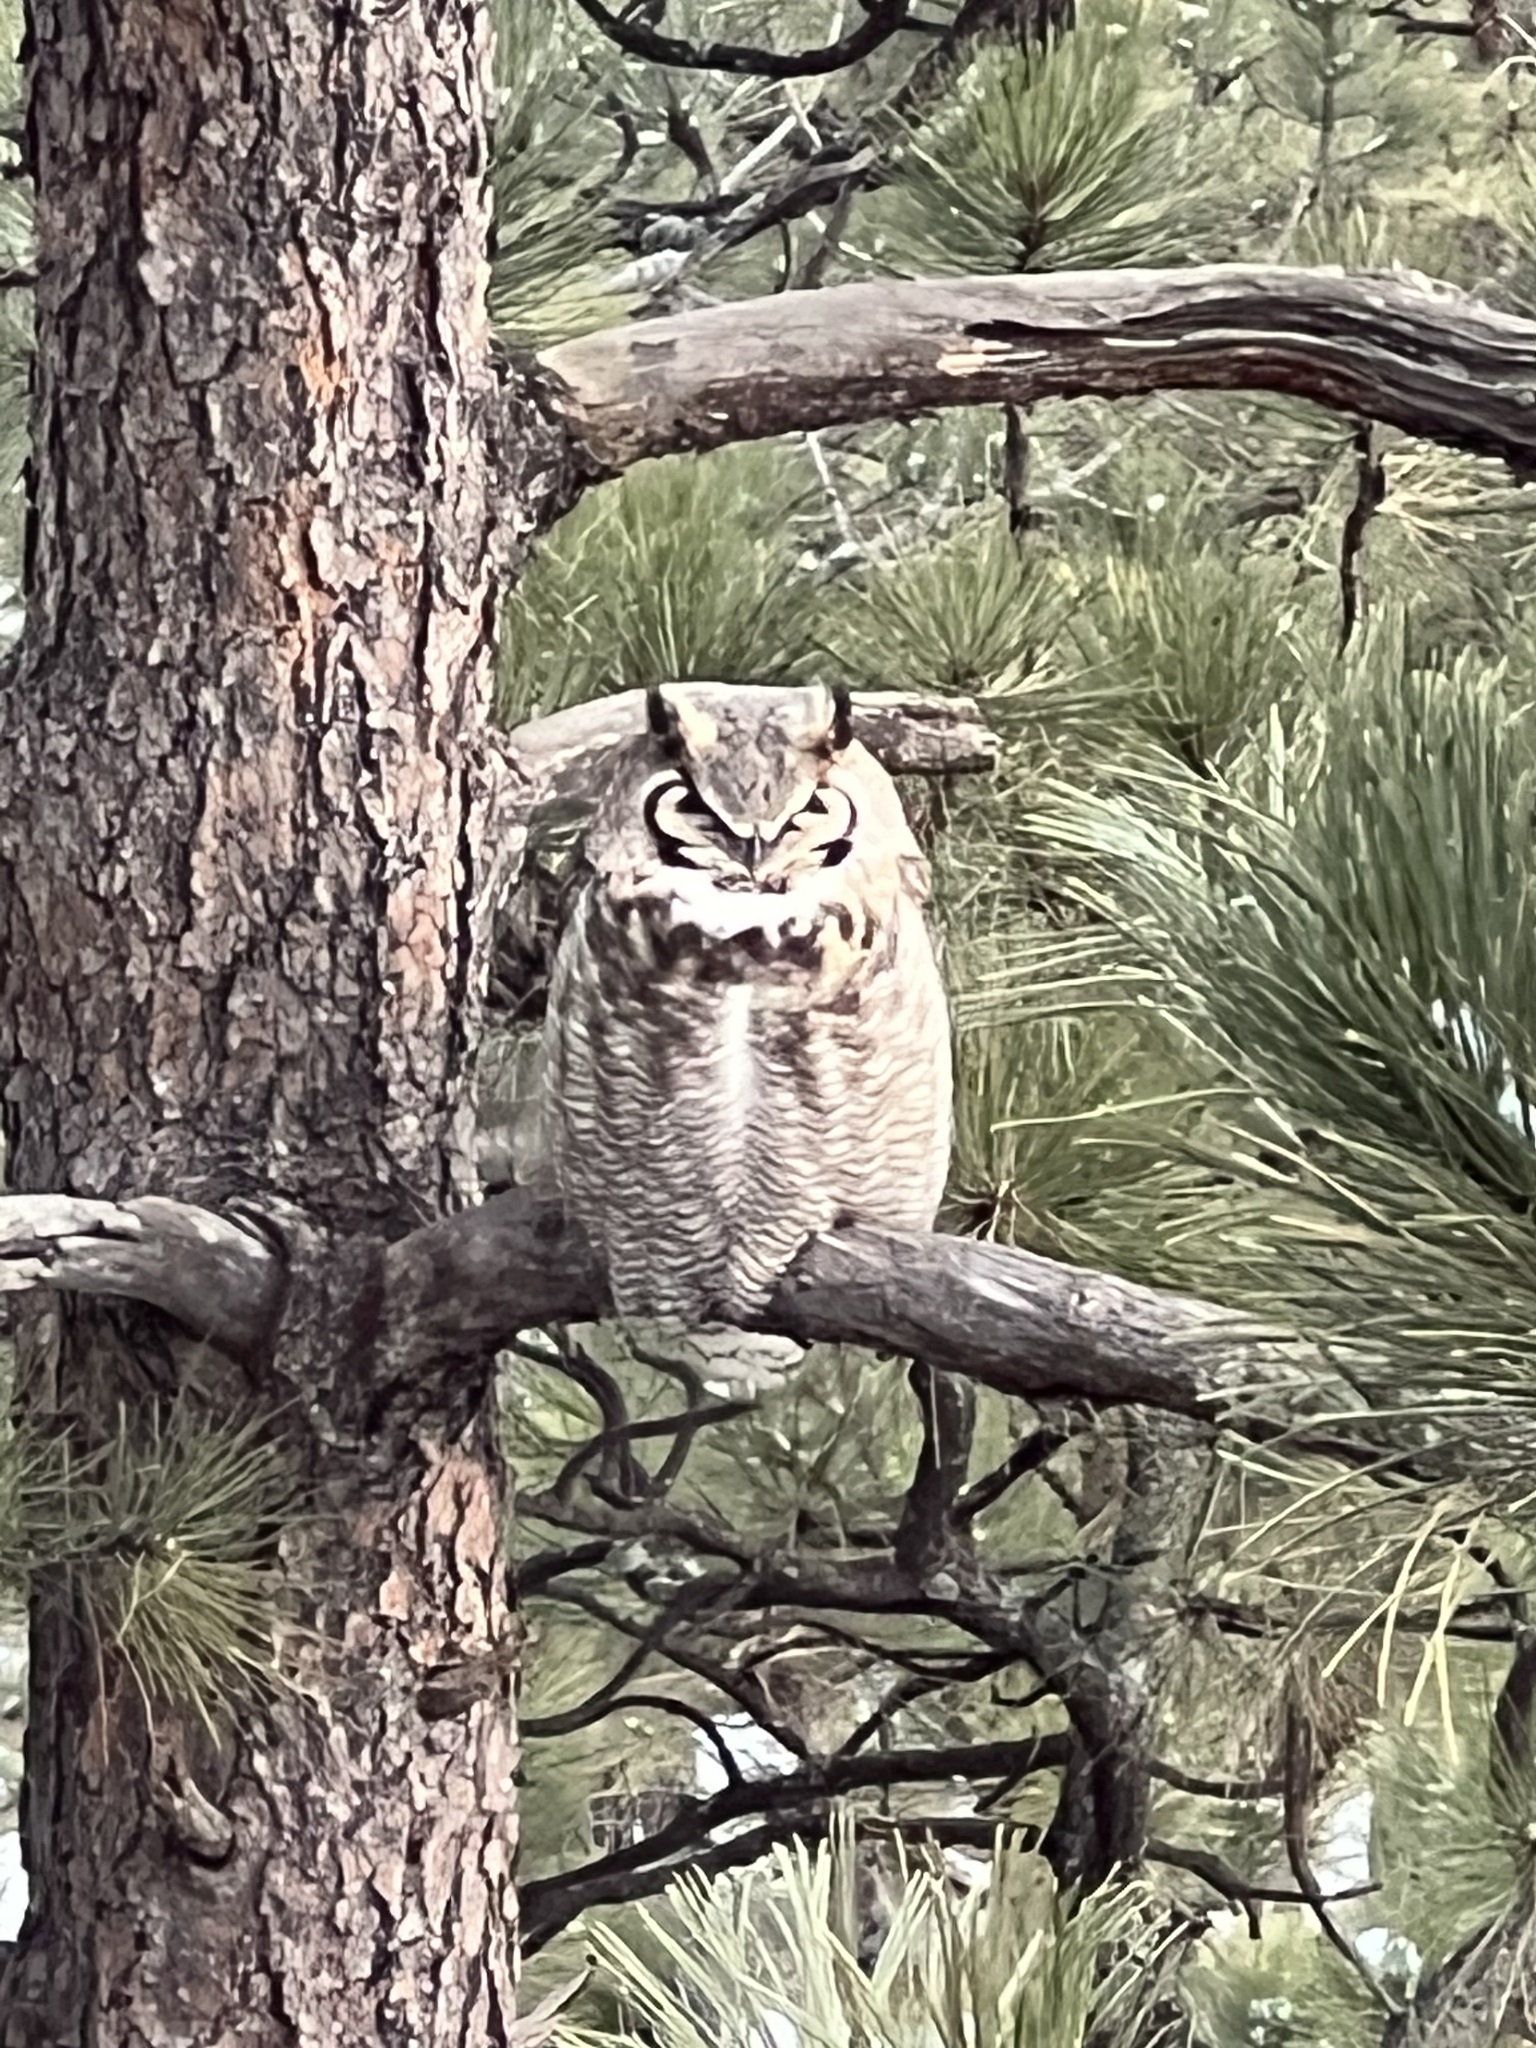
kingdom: Animalia
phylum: Chordata
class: Aves
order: Strigiformes
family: Strigidae
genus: Bubo
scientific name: Bubo virginianus
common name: Great horned owl
